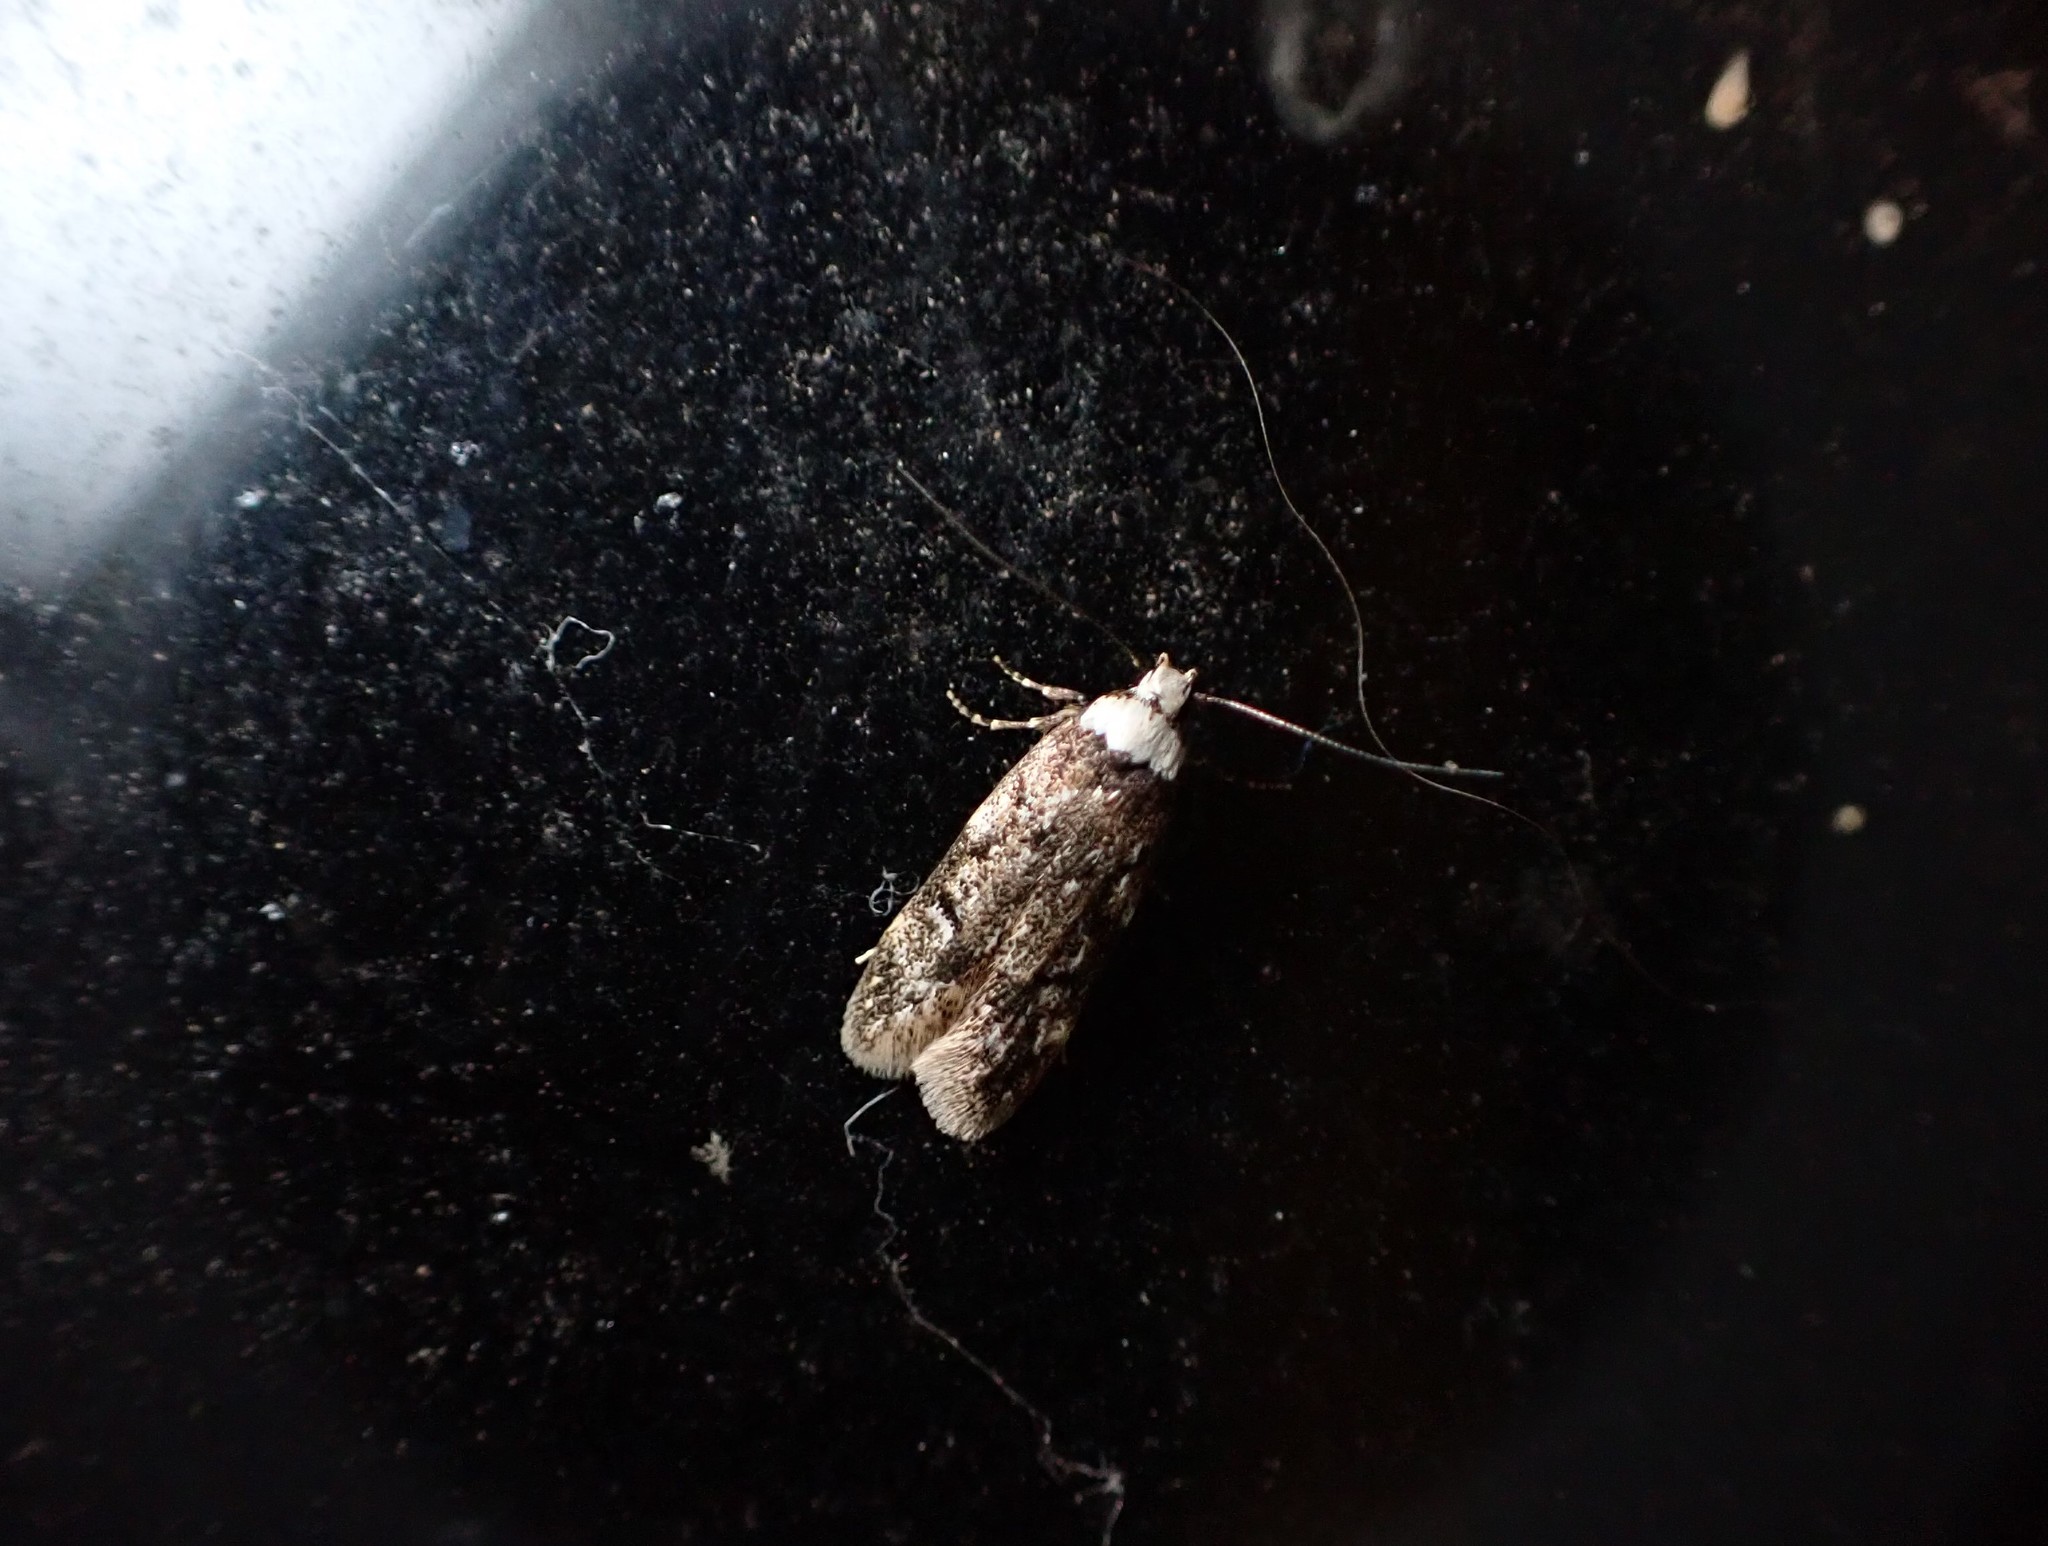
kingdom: Animalia
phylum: Arthropoda
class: Insecta
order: Lepidoptera
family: Oecophoridae
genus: Endrosis
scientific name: Endrosis sarcitrella
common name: White-shouldered house moth
